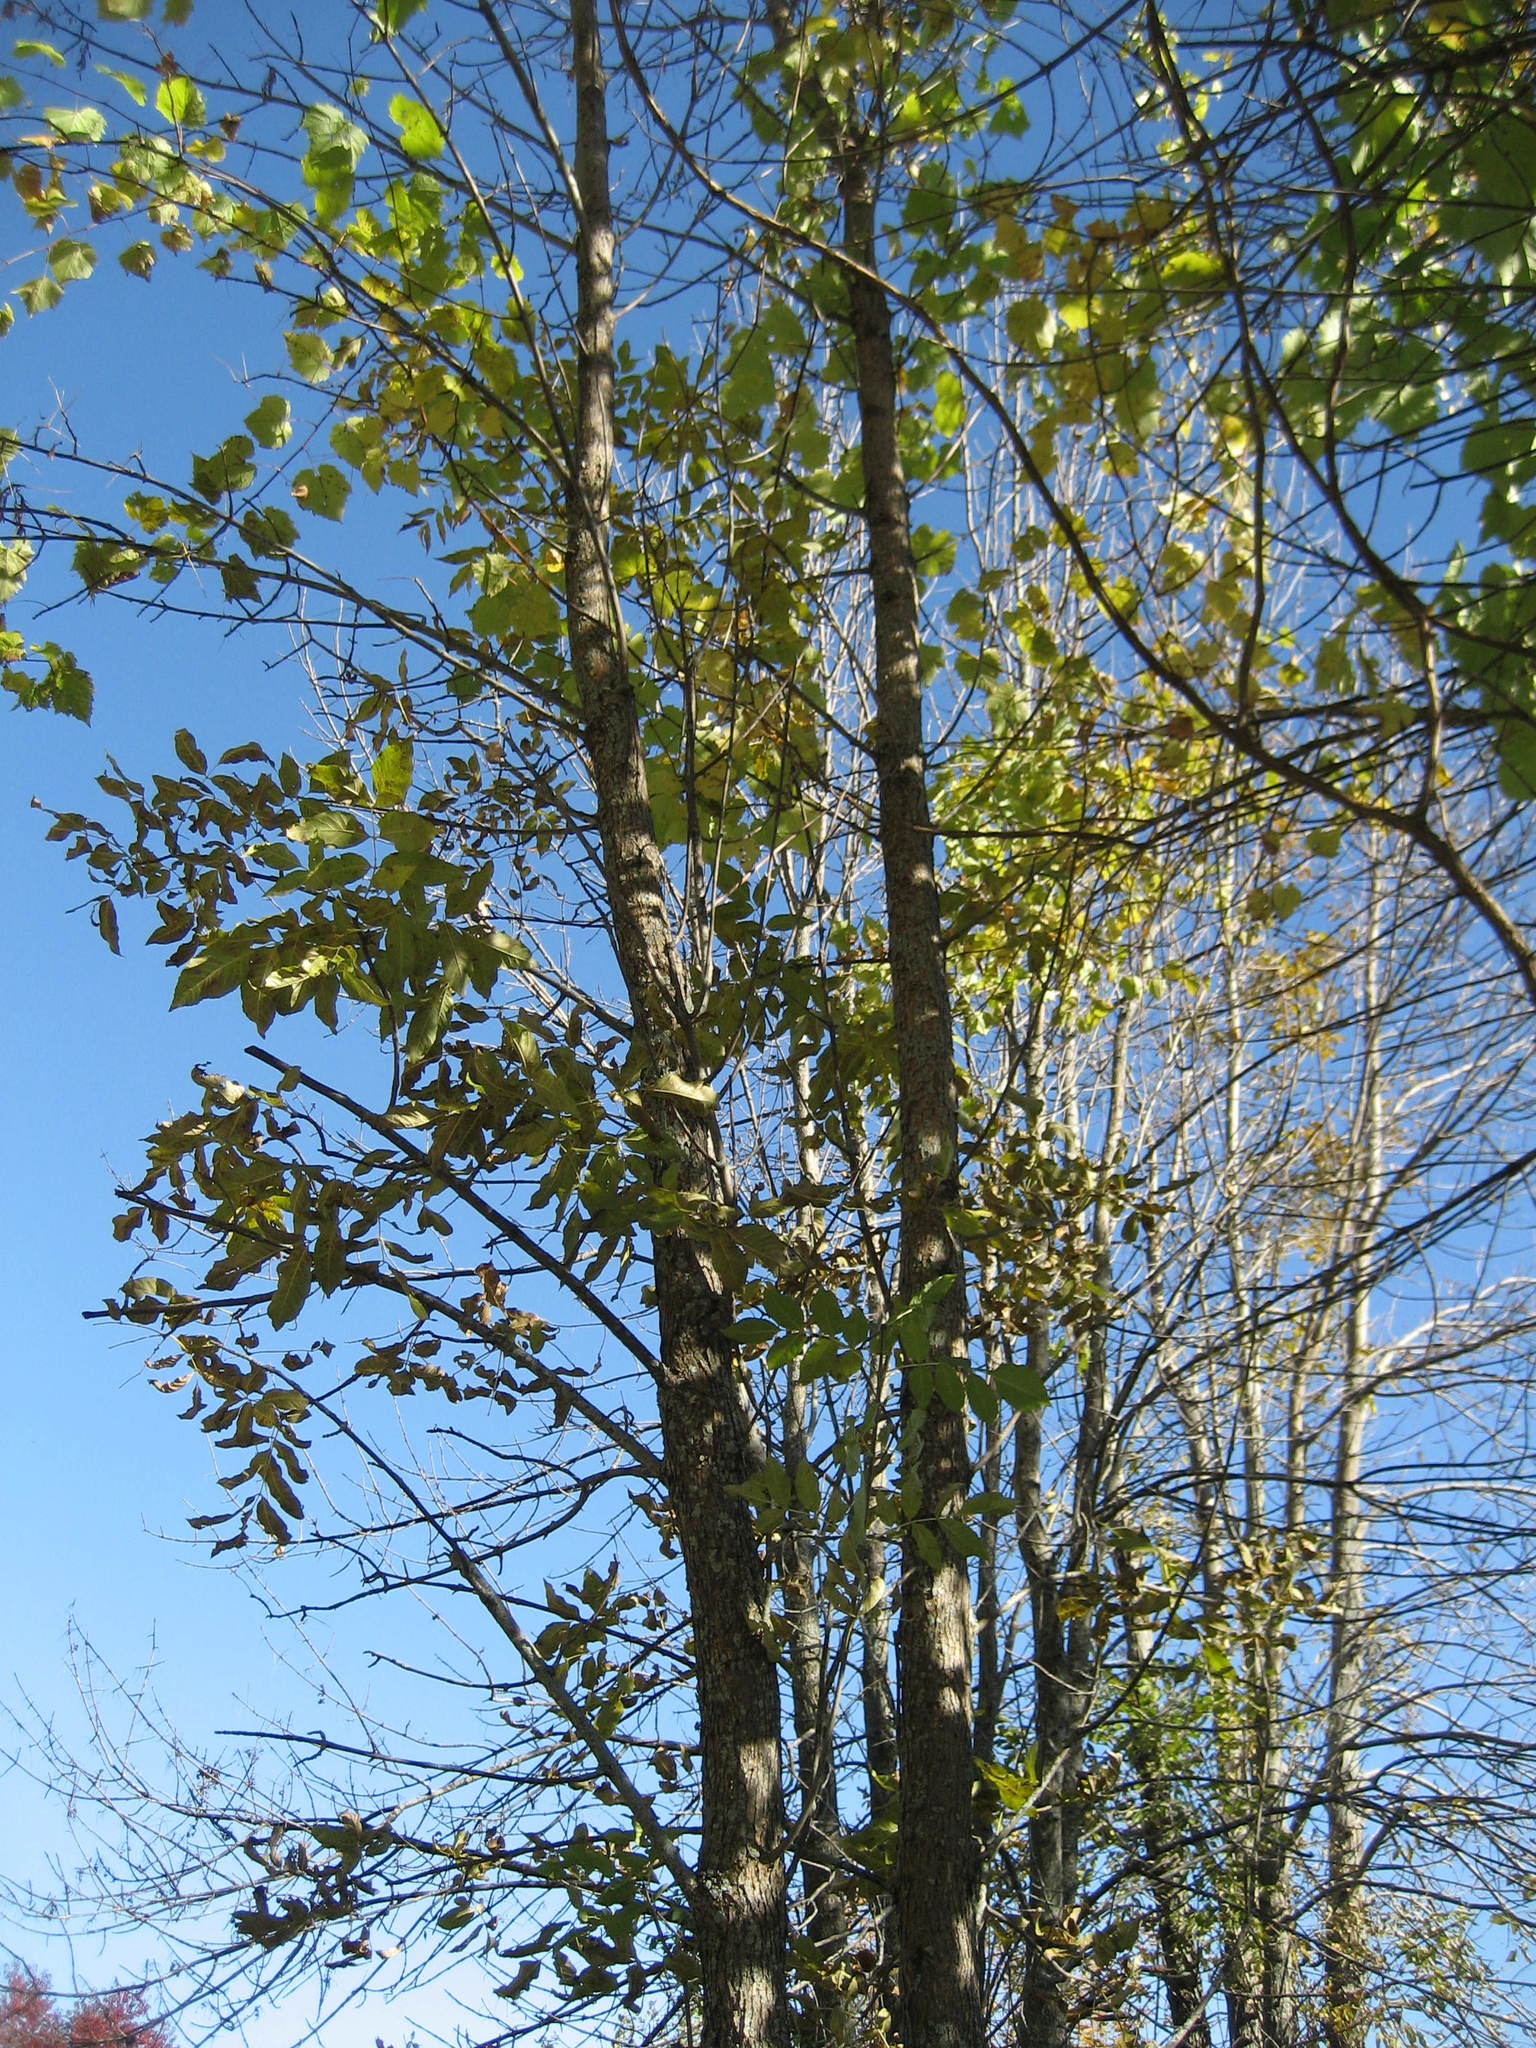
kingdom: Plantae
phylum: Tracheophyta
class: Magnoliopsida
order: Lamiales
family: Oleaceae
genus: Fraxinus
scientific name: Fraxinus pennsylvanica
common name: Green ash
